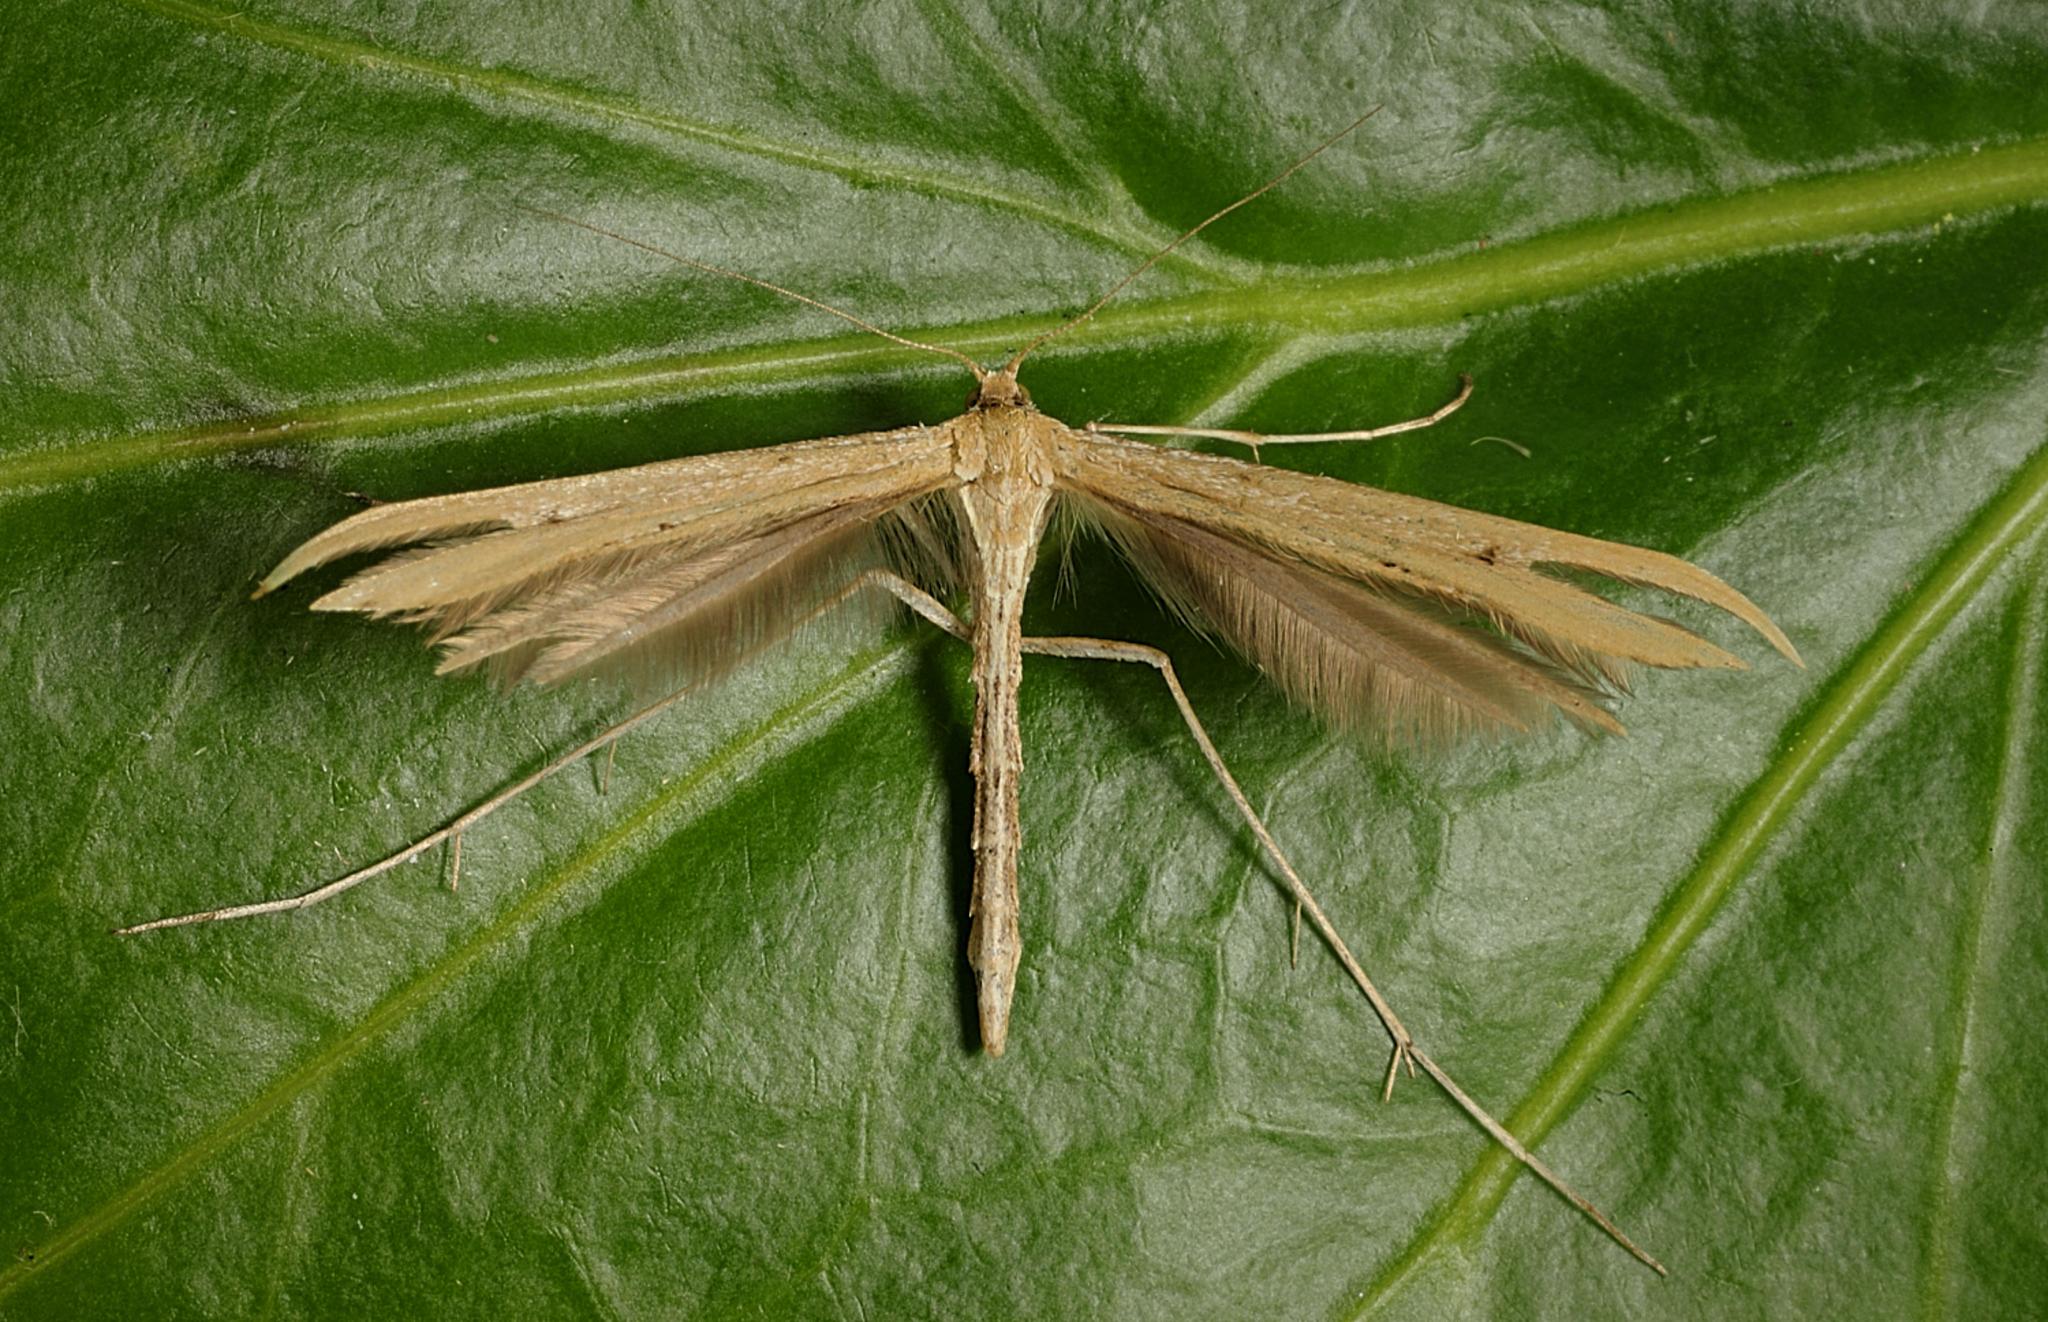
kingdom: Animalia
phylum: Arthropoda
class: Insecta
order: Lepidoptera
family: Pterophoridae
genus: Emmelina
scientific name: Emmelina monodactyla
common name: Common plume
